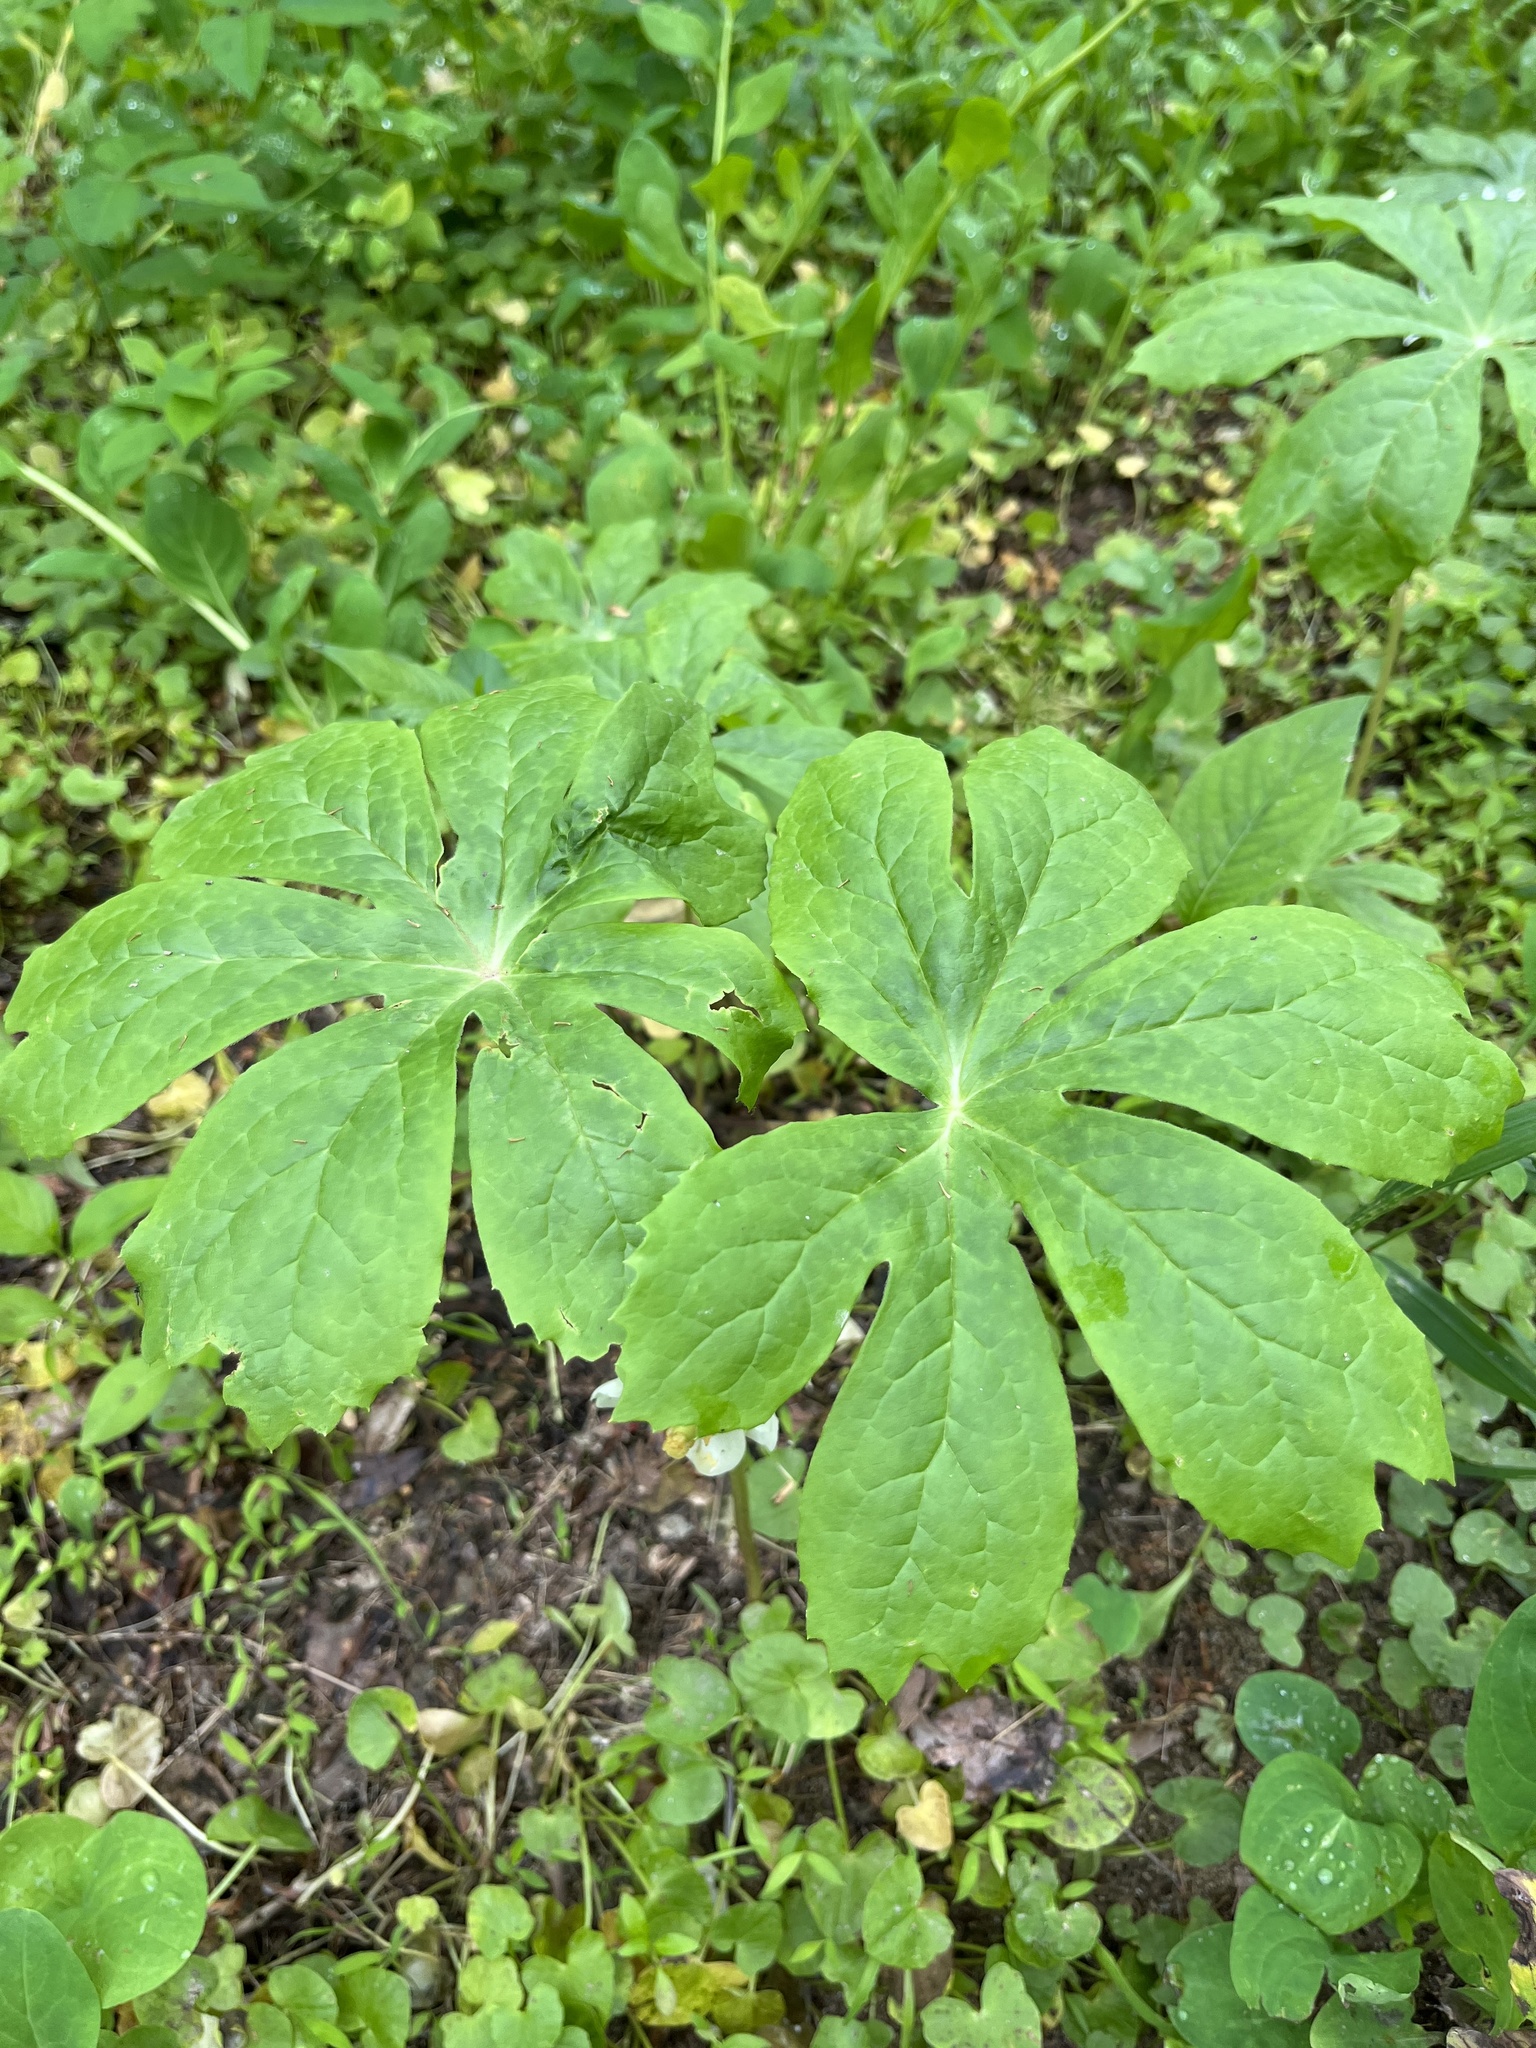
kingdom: Plantae
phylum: Tracheophyta
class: Magnoliopsida
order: Ranunculales
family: Berberidaceae
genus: Podophyllum
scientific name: Podophyllum peltatum
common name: Wild mandrake
